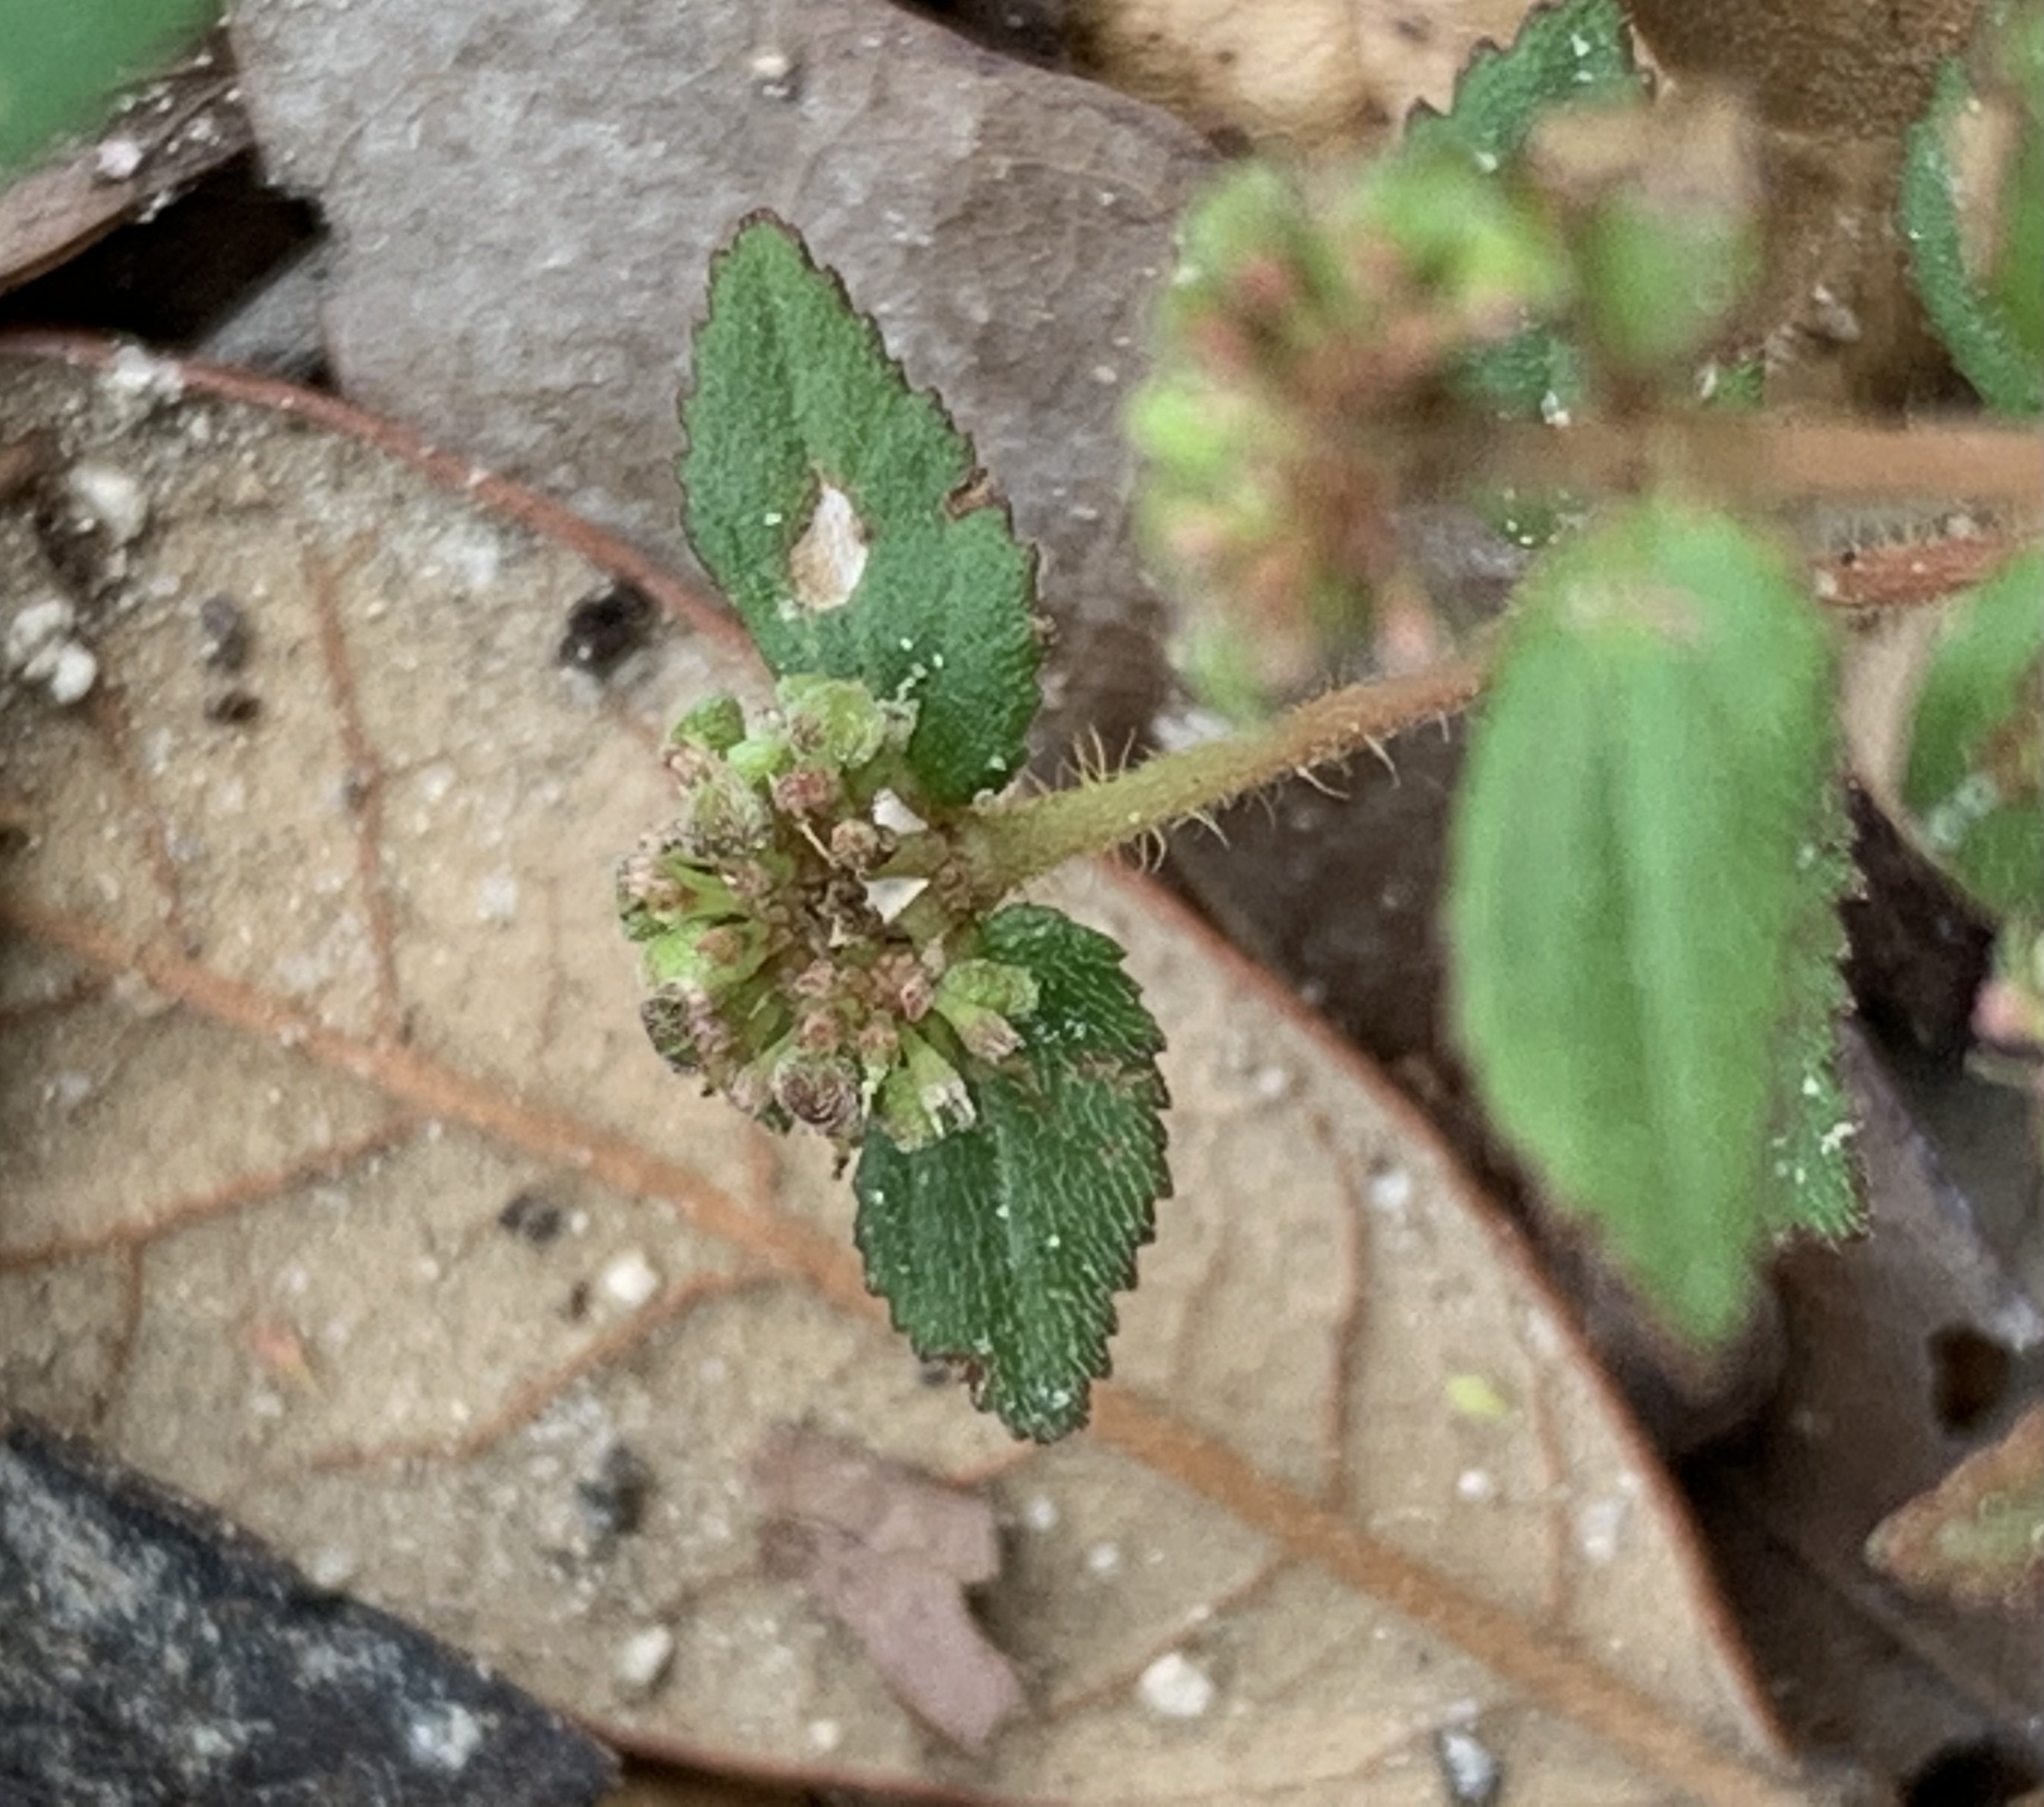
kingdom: Plantae
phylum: Tracheophyta
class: Magnoliopsida
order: Malpighiales
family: Euphorbiaceae
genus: Euphorbia
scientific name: Euphorbia ophthalmica
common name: Florida hammock sandmat
